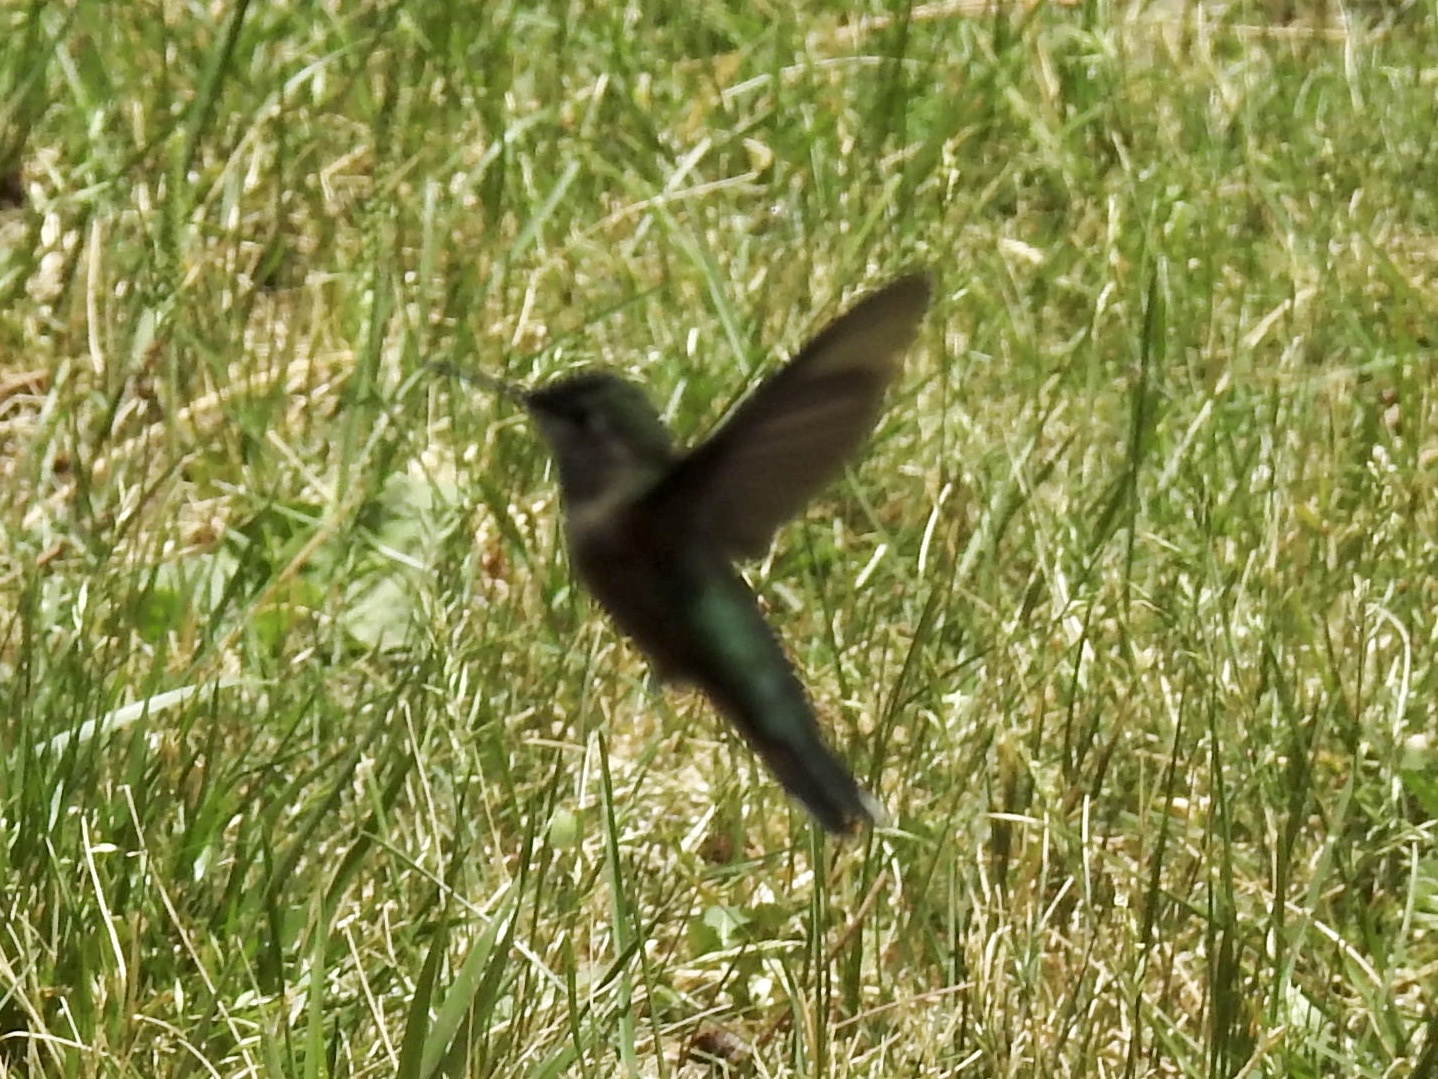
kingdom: Animalia
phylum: Chordata
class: Aves
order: Apodiformes
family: Trochilidae
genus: Selasphorus
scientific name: Selasphorus platycercus
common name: Broad-tailed hummingbird
